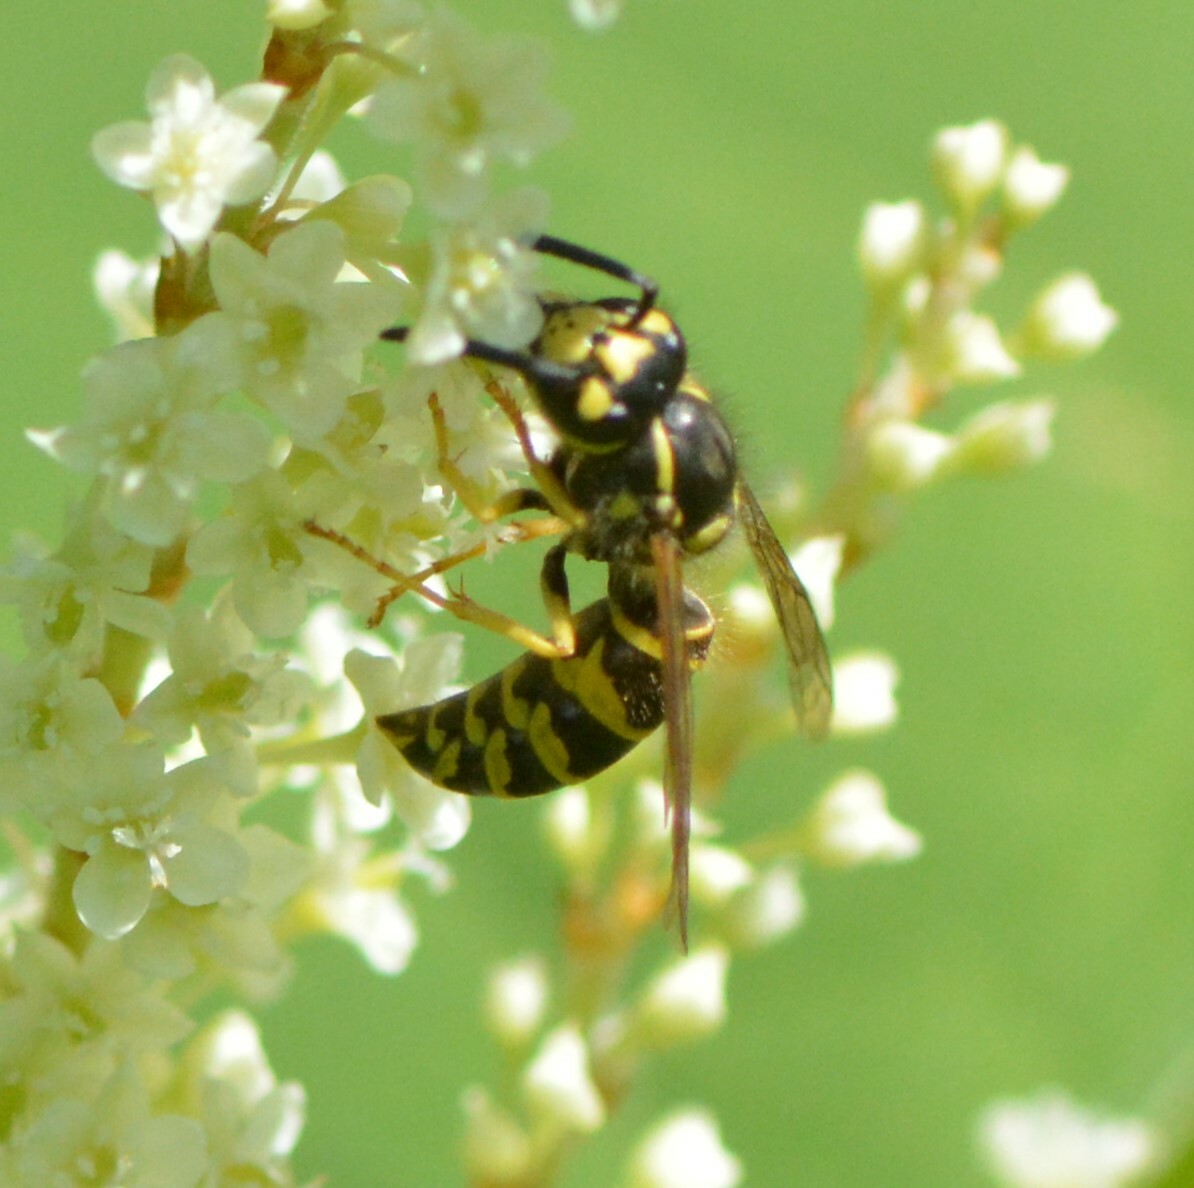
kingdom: Animalia
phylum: Arthropoda
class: Insecta
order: Hymenoptera
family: Vespidae
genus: Vespula
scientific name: Vespula maculifrons
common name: Eastern yellowjacket
